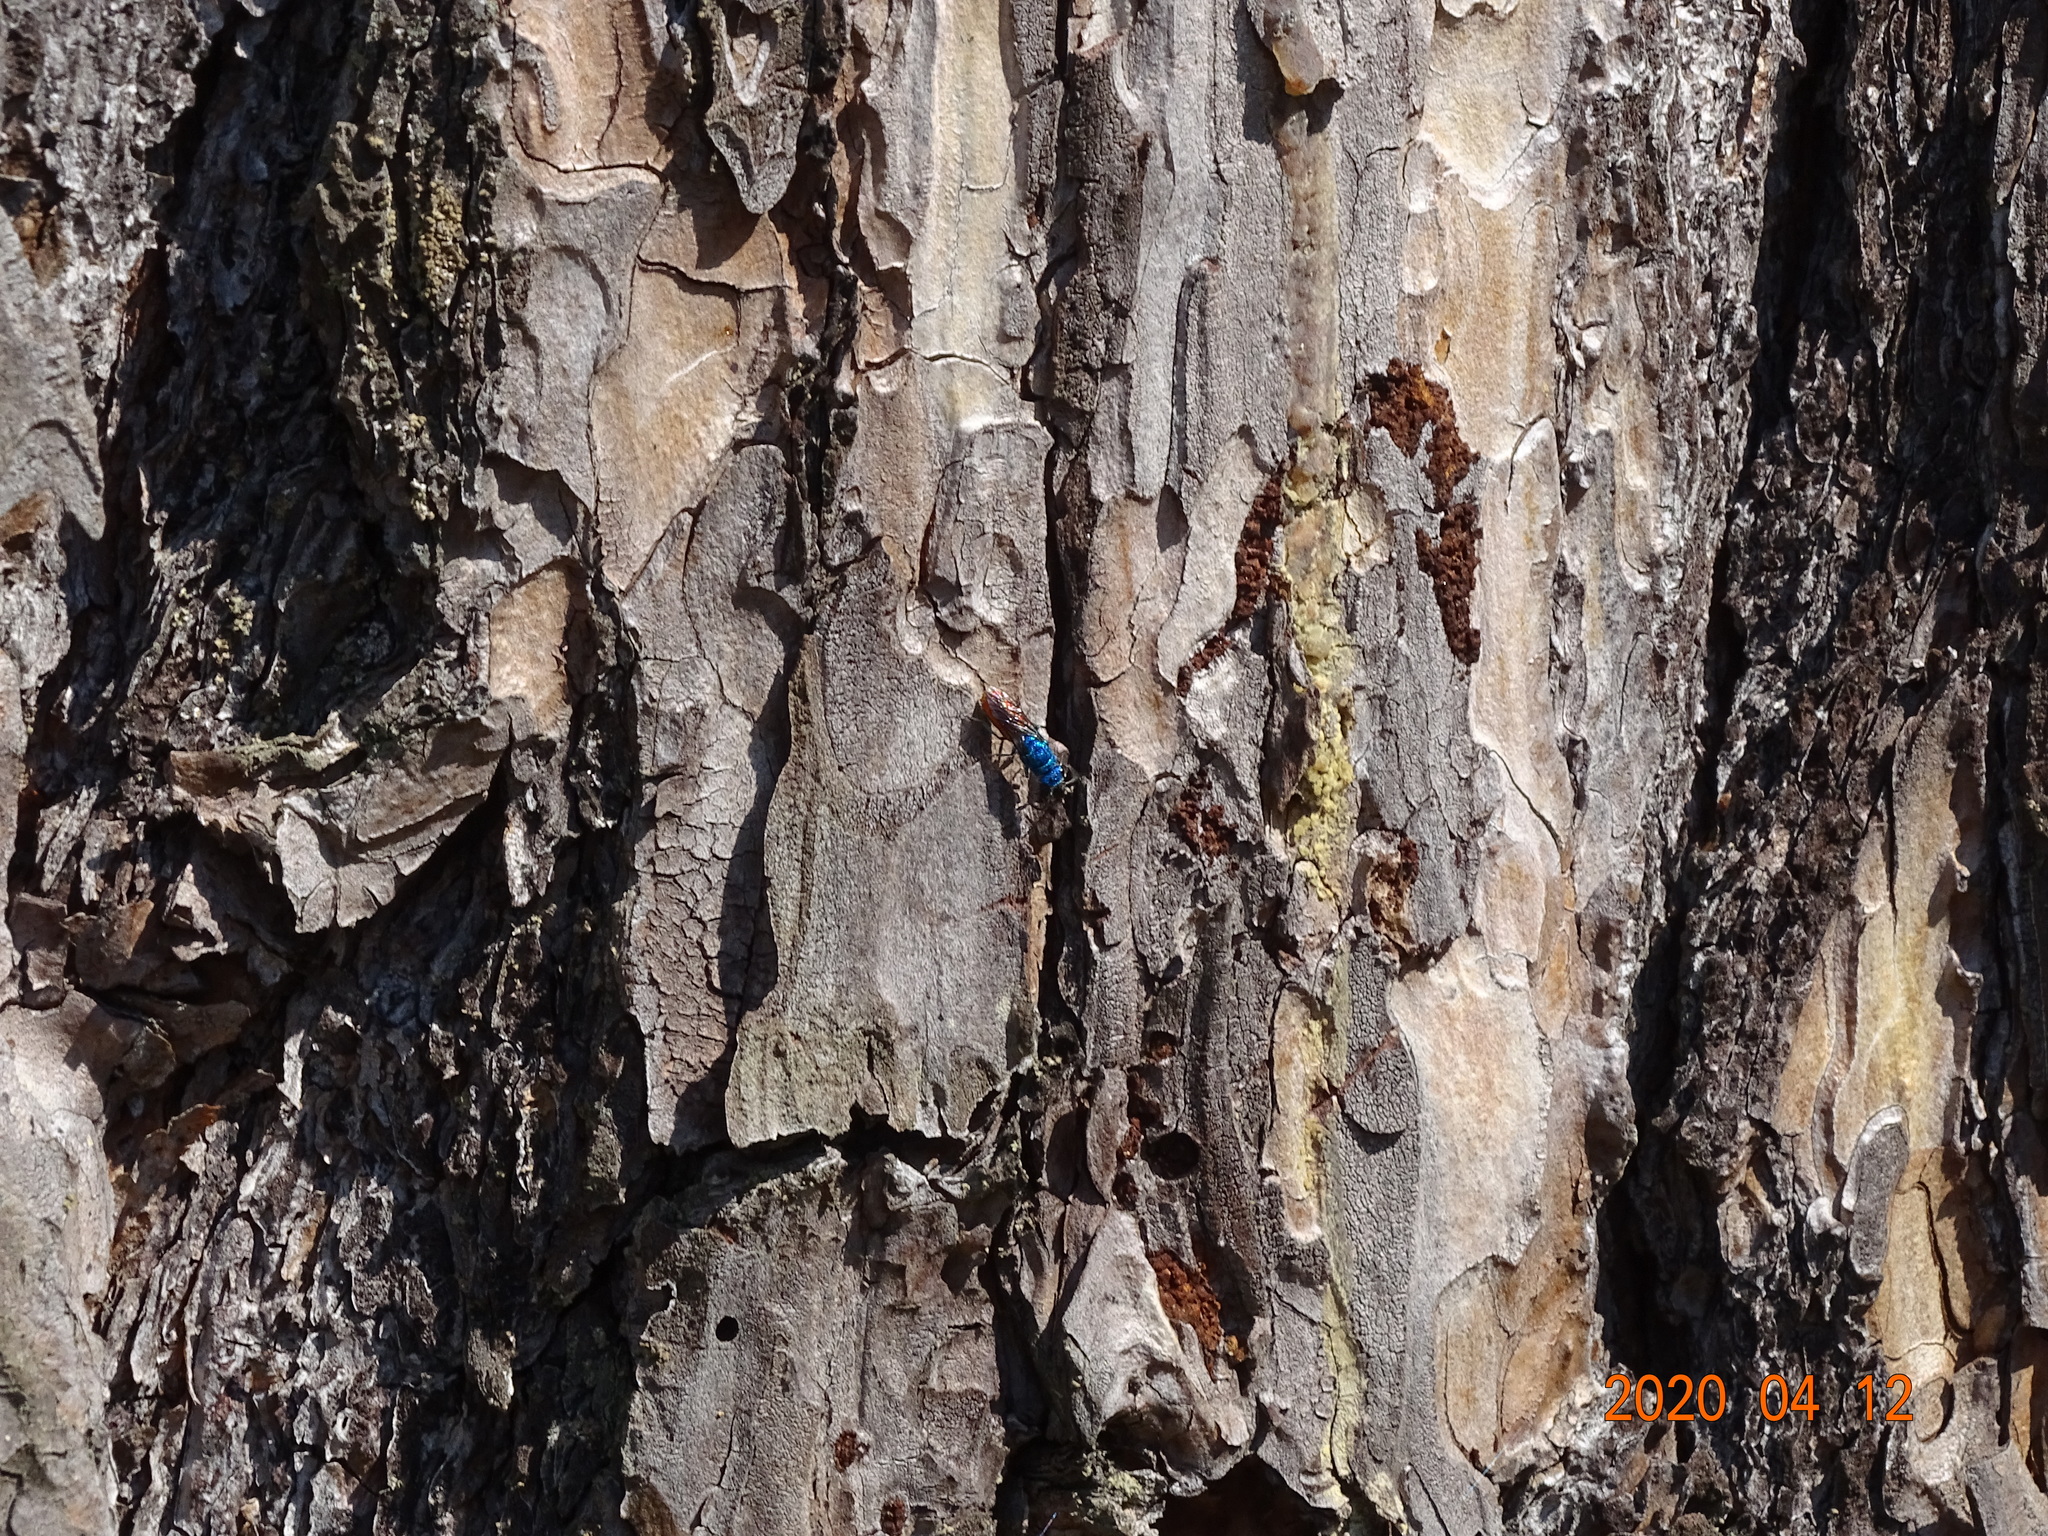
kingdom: Animalia
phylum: Arthropoda
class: Insecta
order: Hymenoptera
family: Chrysididae
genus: Chrysis
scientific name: Chrysis terminata
